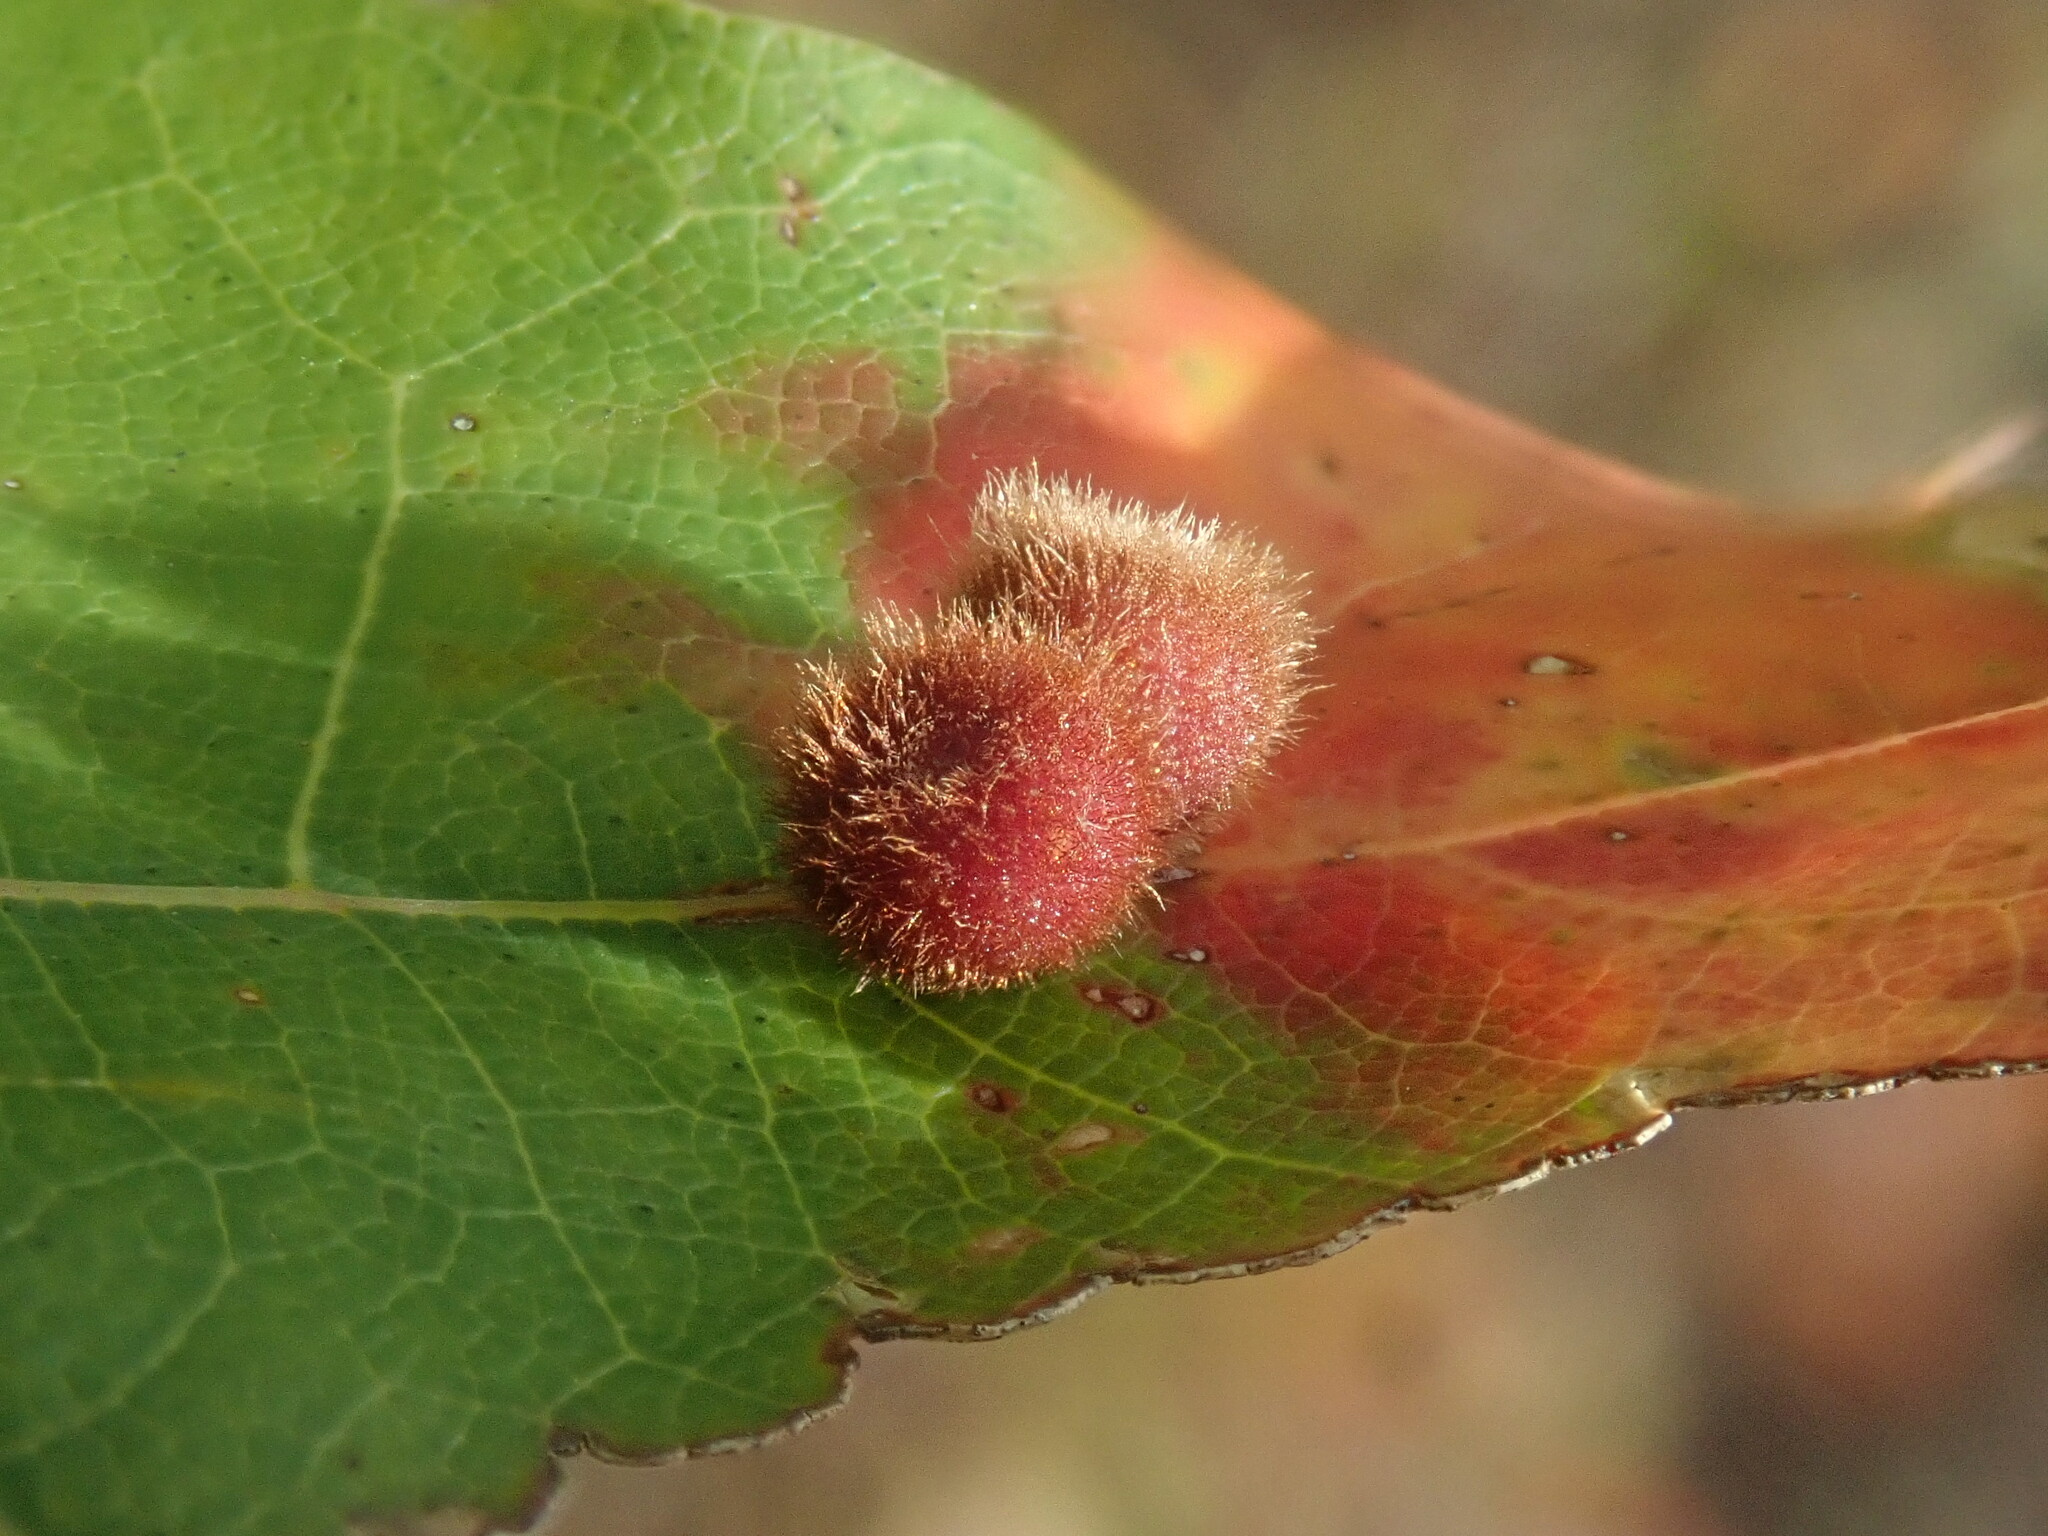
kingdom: Animalia
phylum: Arthropoda
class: Insecta
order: Hymenoptera
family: Cynipidae
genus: Callirhytis
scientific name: Callirhytis
